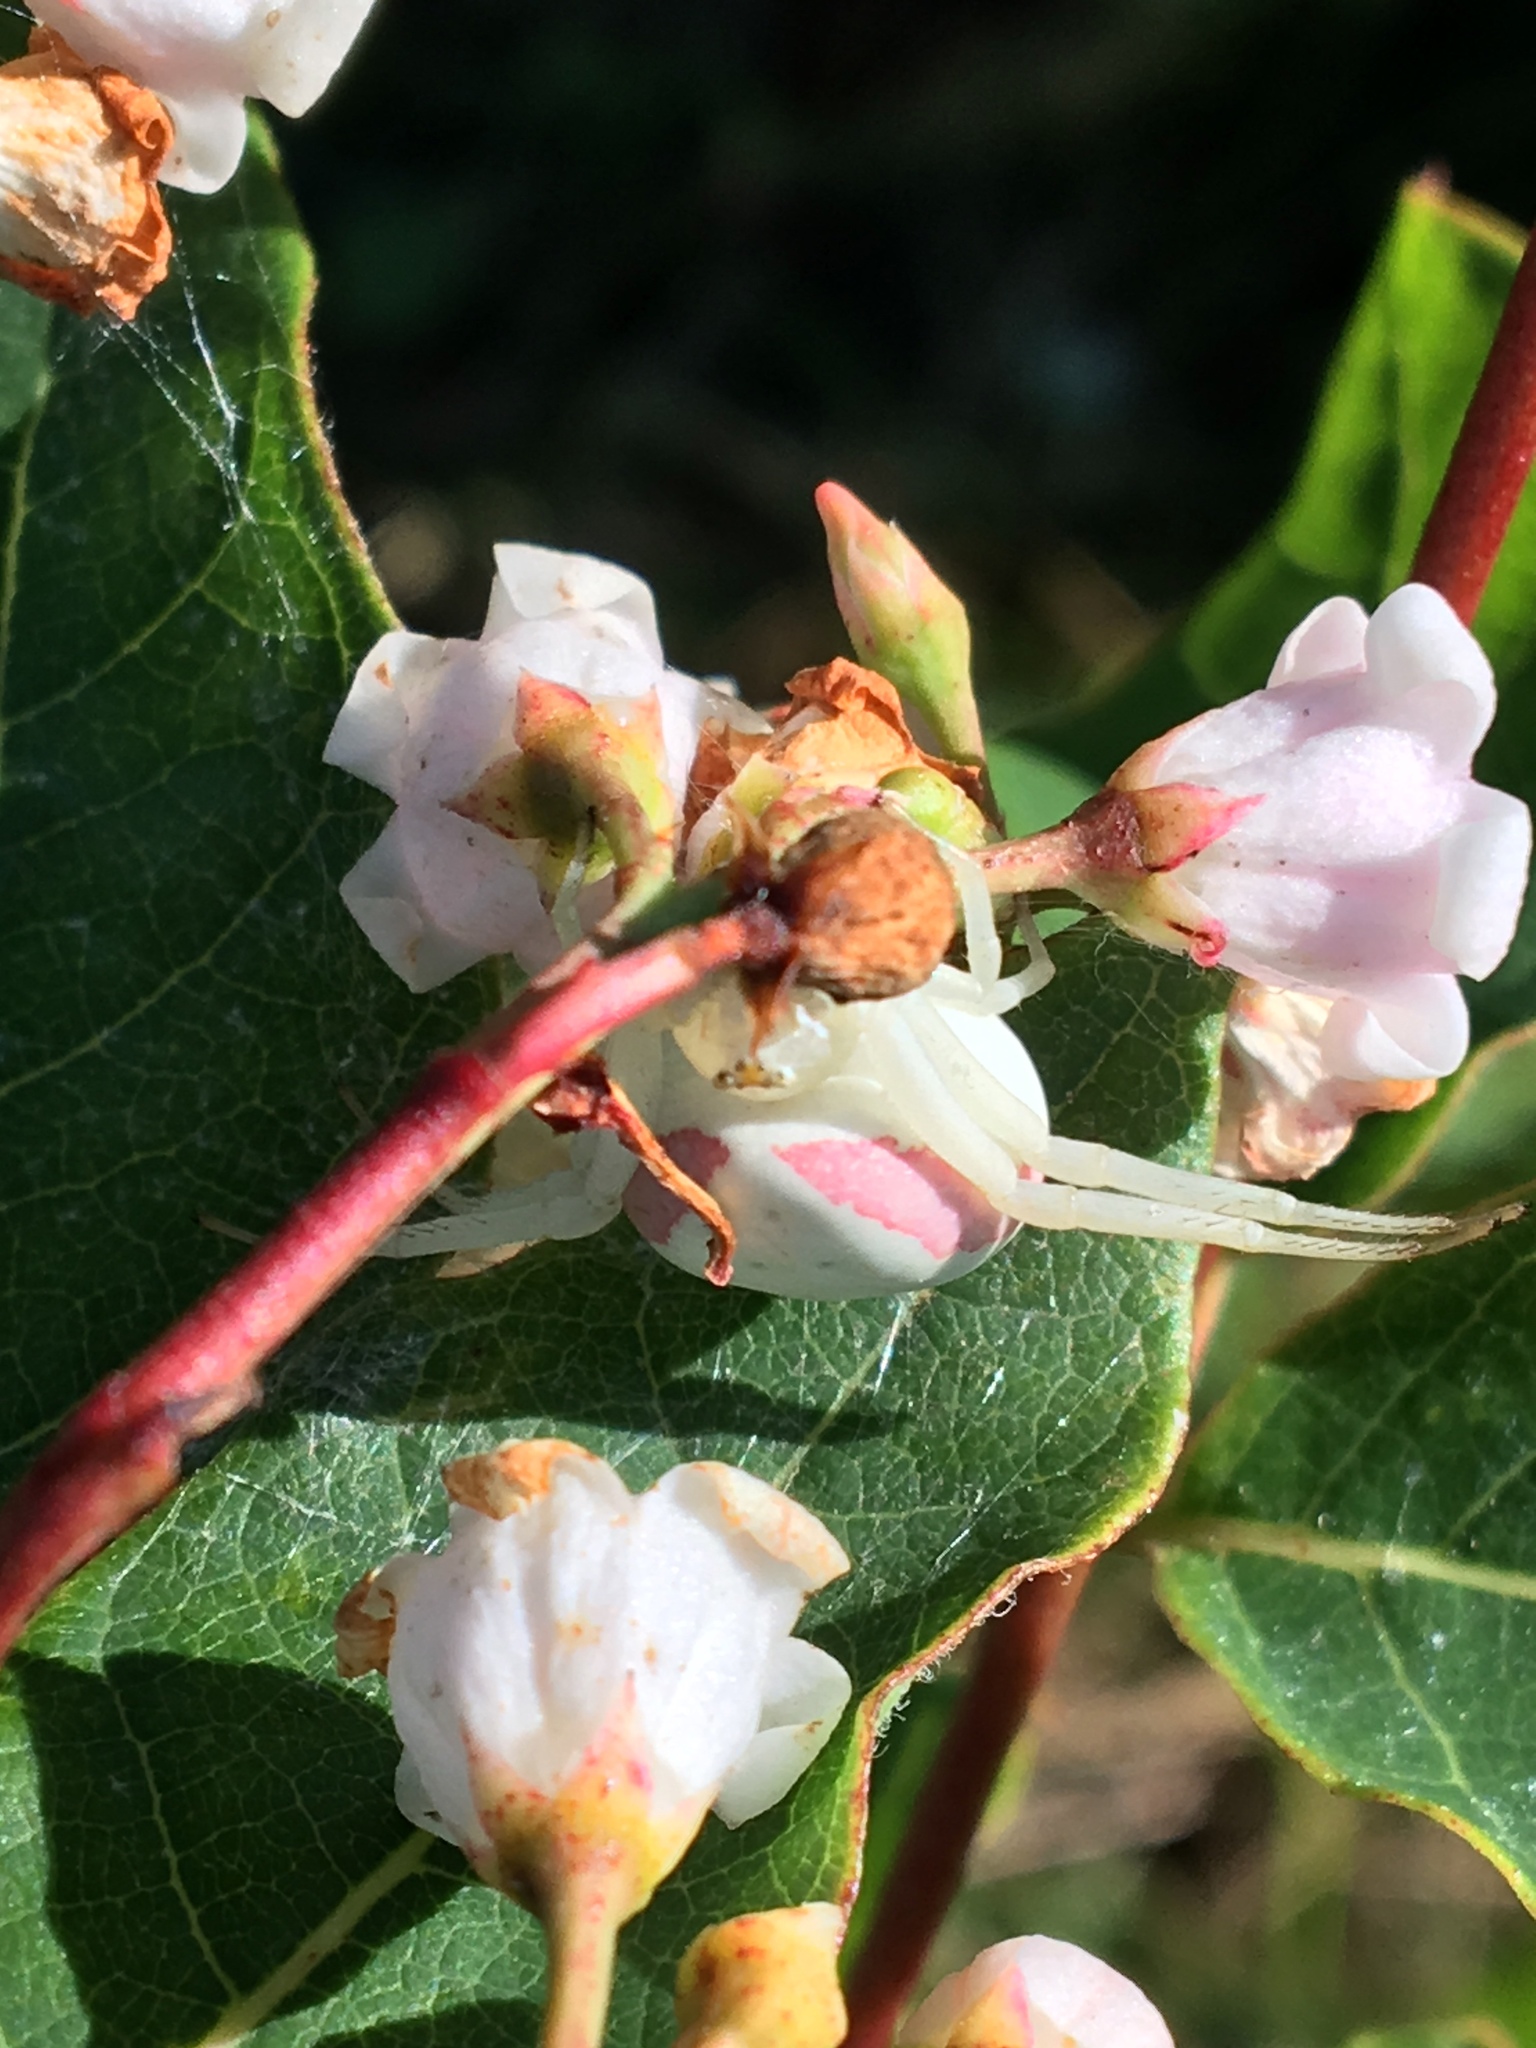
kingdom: Animalia
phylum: Arthropoda
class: Arachnida
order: Araneae
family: Thomisidae
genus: Misumena
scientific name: Misumena vatia
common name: Goldenrod crab spider
